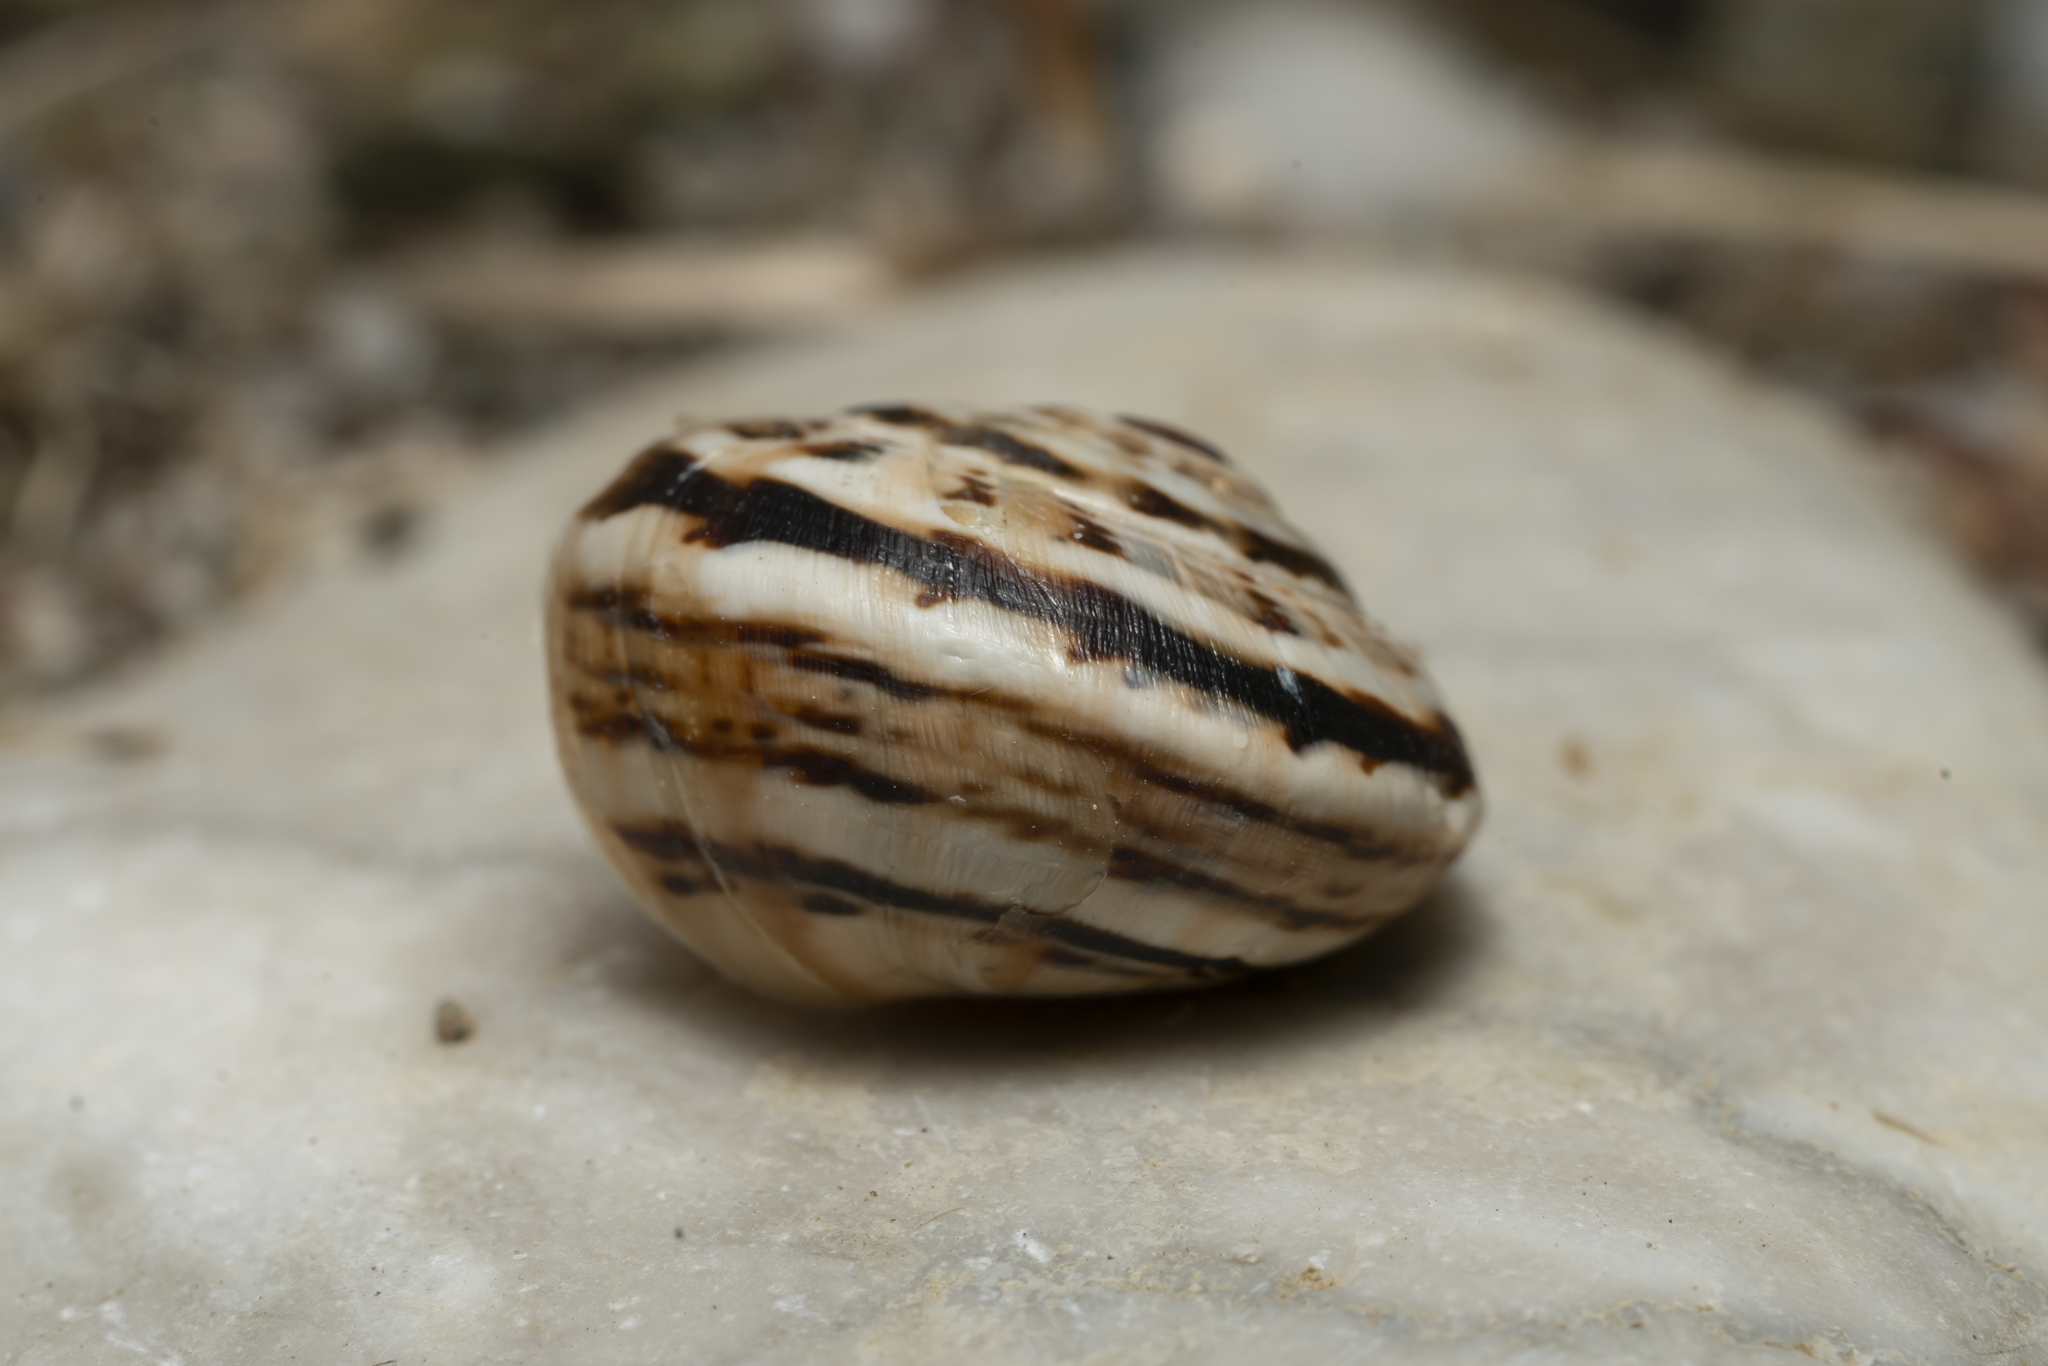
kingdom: Animalia
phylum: Mollusca
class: Gastropoda
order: Stylommatophora
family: Helicidae
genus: Theba
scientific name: Theba pisana
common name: White snail
